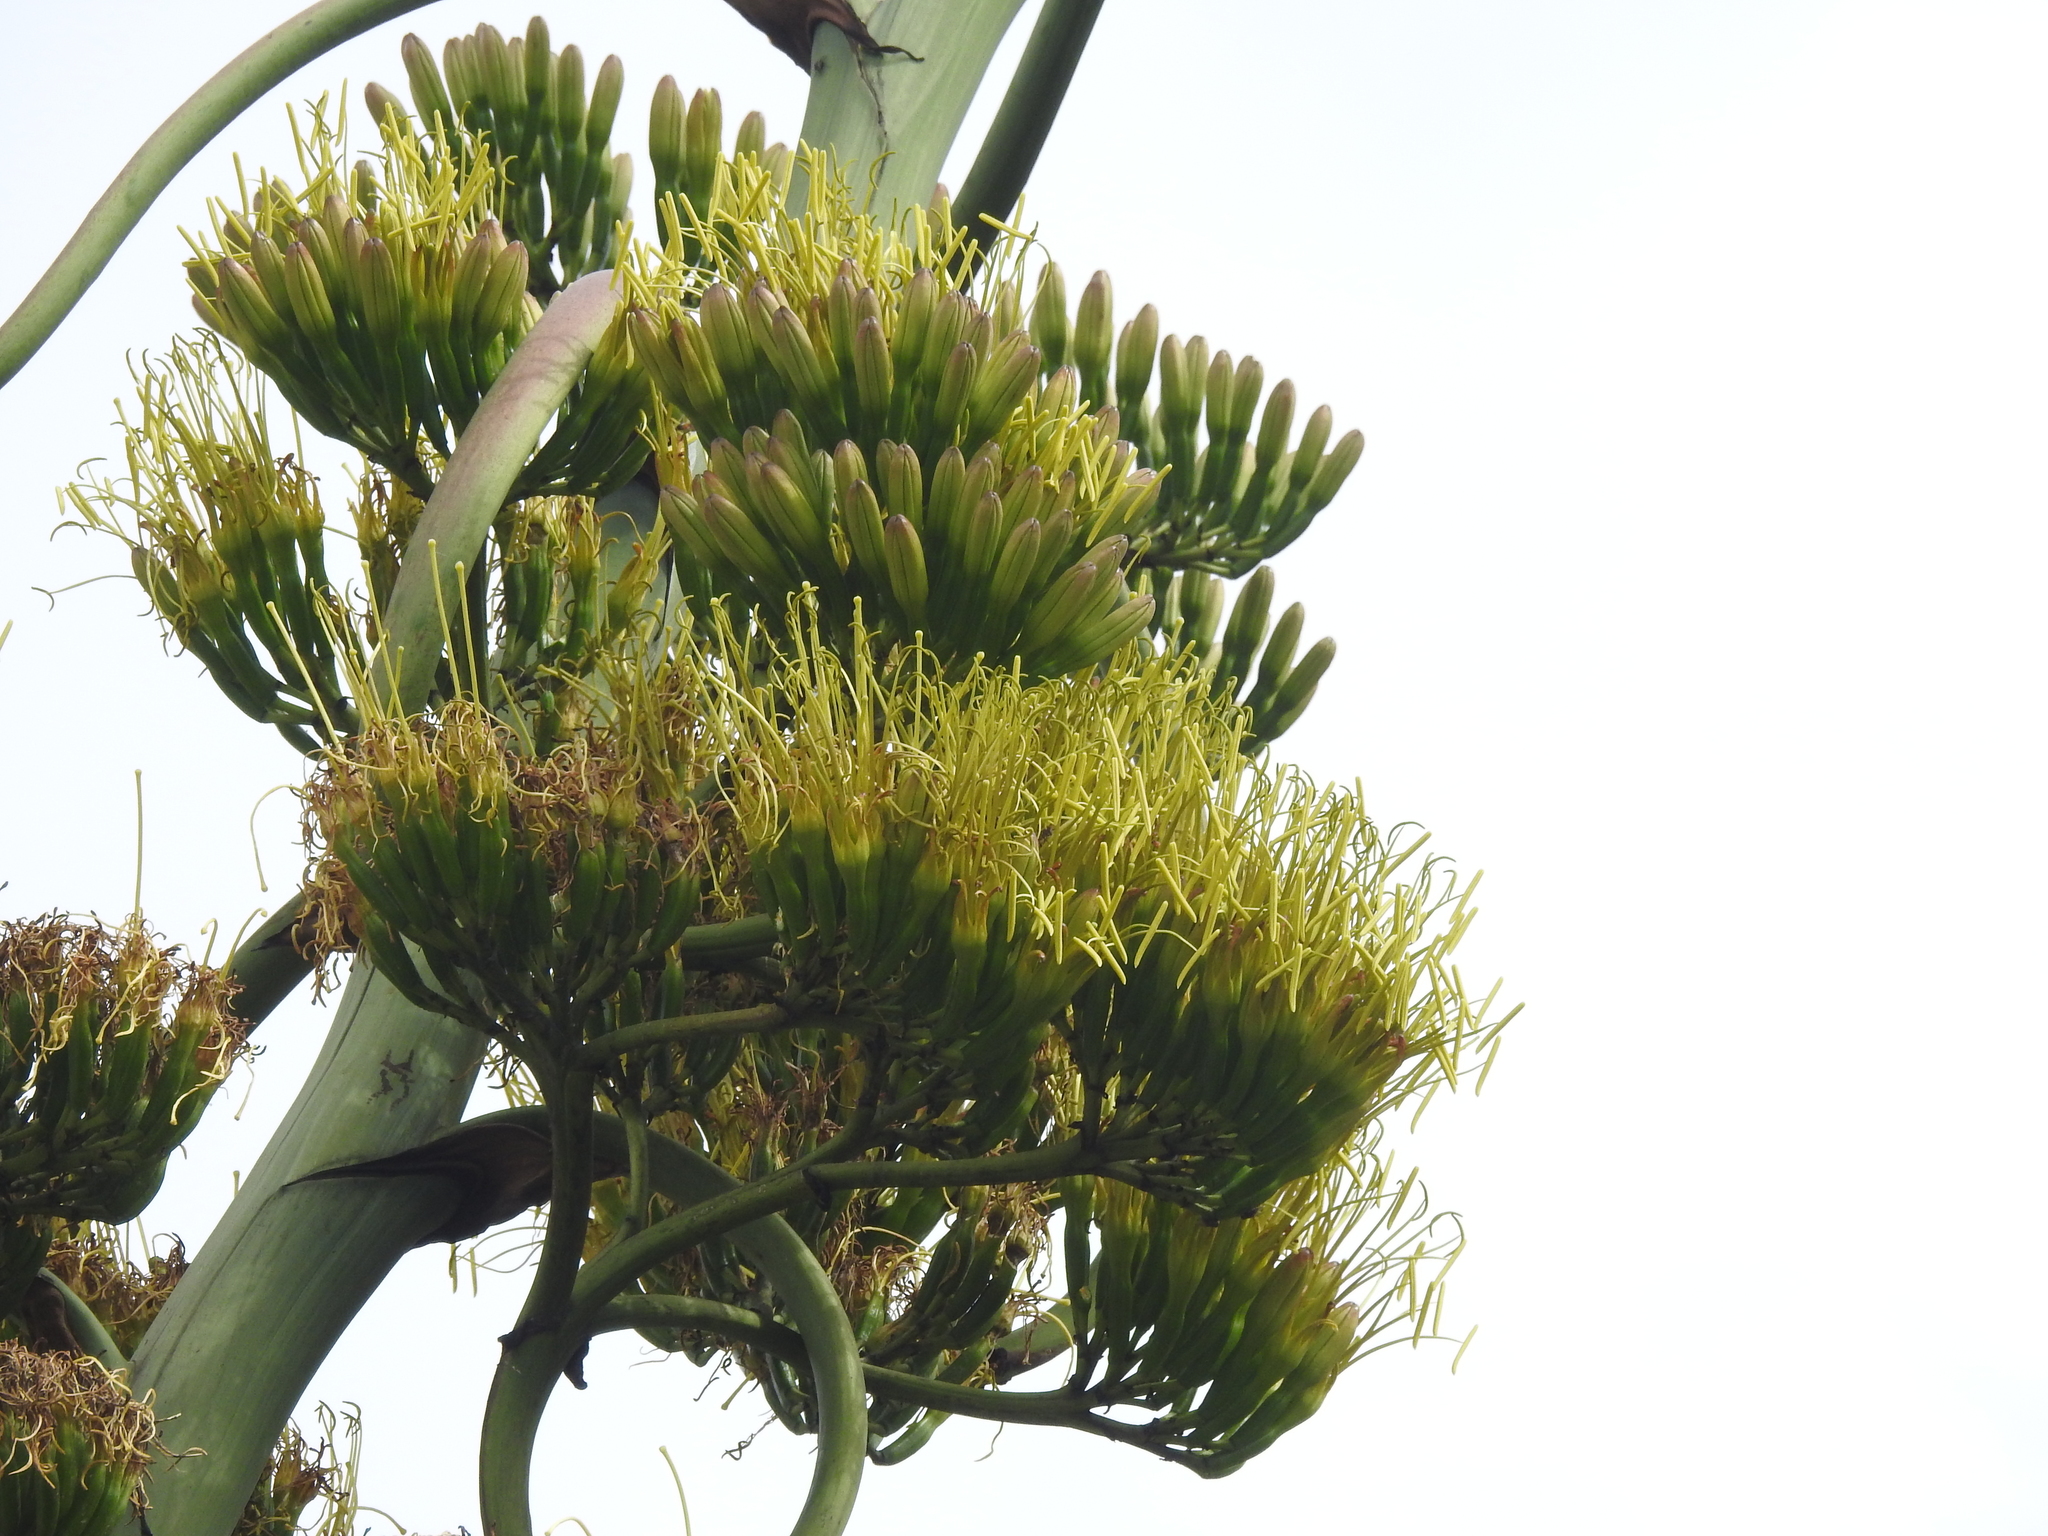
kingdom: Plantae
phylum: Tracheophyta
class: Liliopsida
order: Asparagales
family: Asparagaceae
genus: Agave
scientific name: Agave americana
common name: Centuryplant
